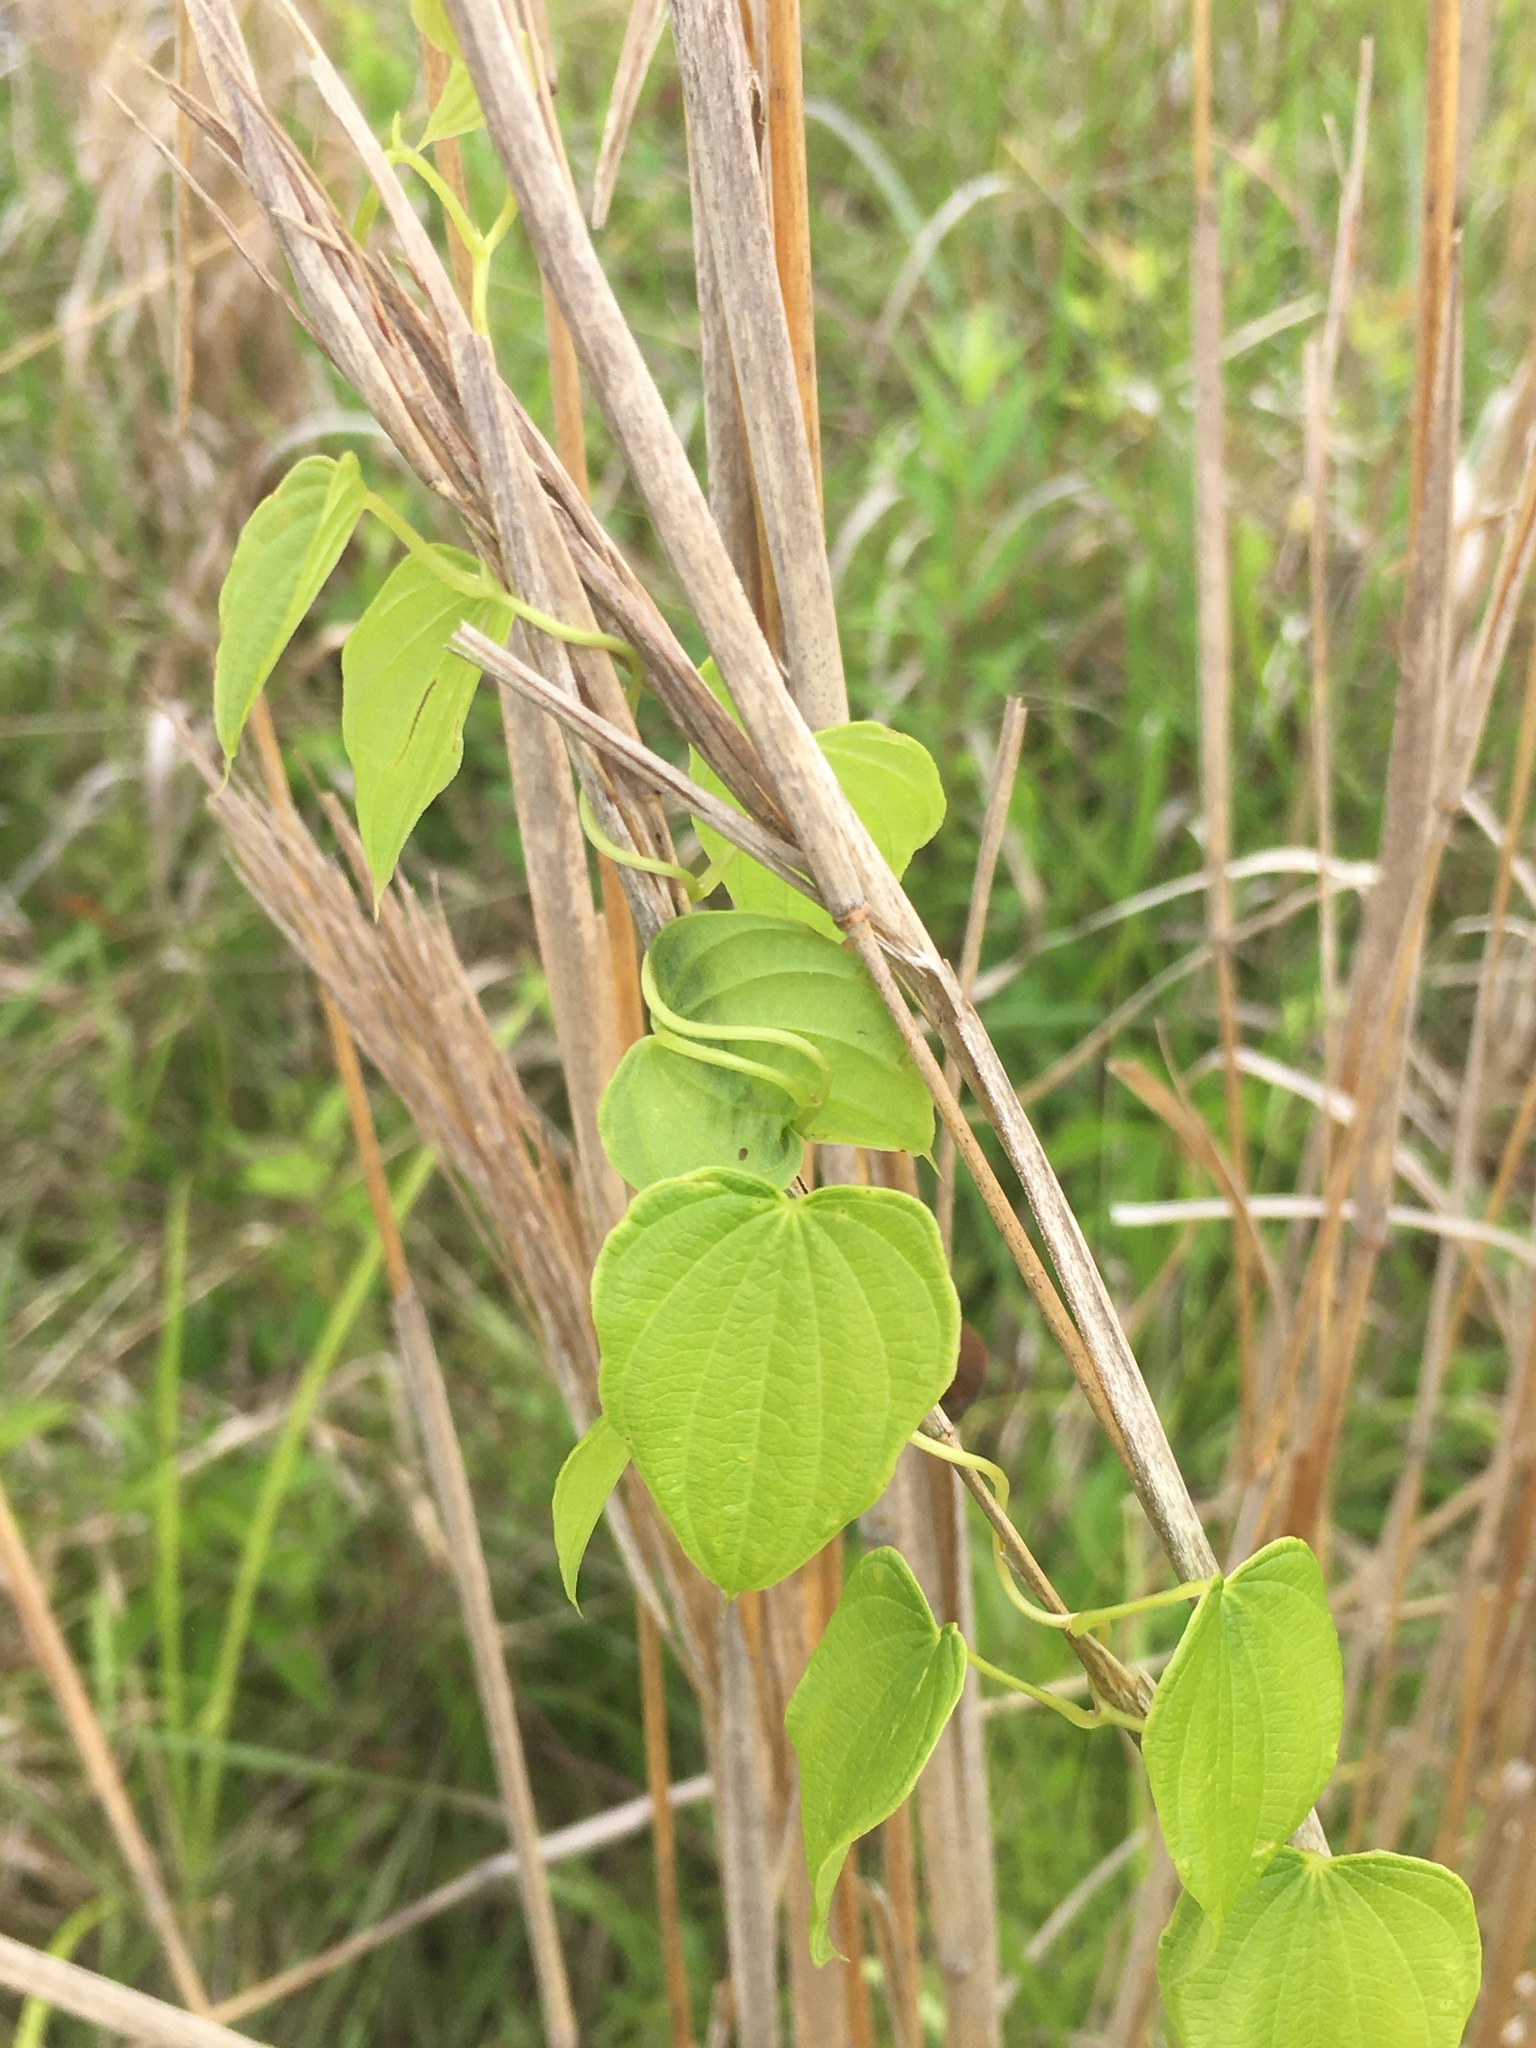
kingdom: Plantae
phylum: Tracheophyta
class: Liliopsida
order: Dioscoreales
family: Dioscoreaceae
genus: Dioscorea
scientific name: Dioscorea villosa
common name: Wild yam
